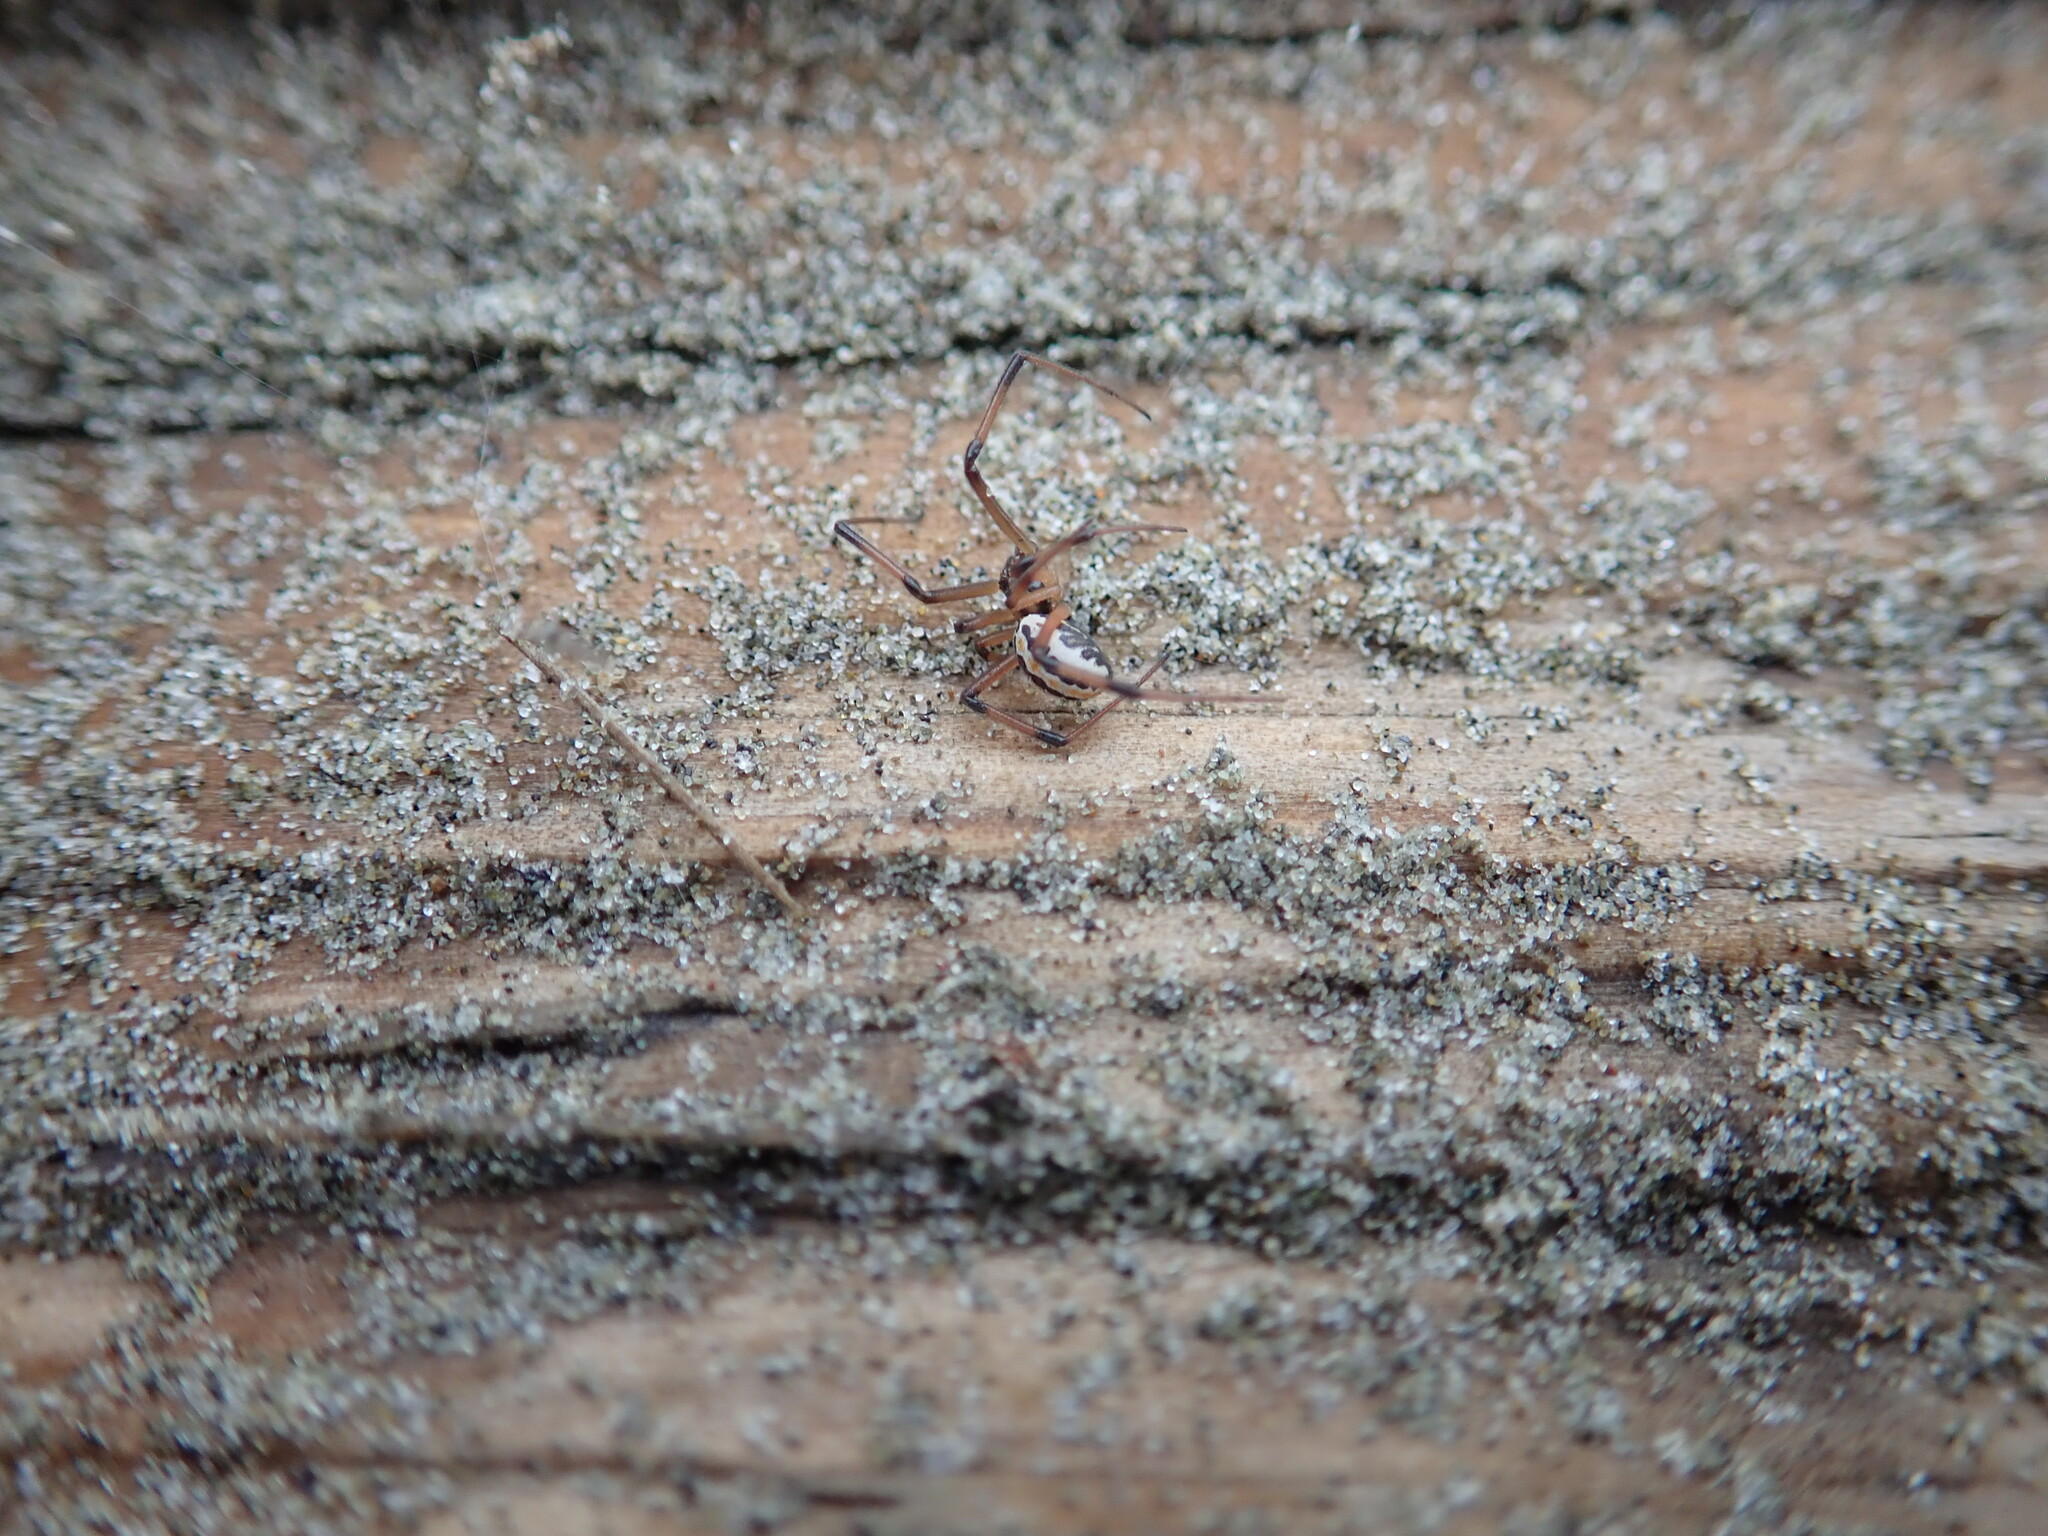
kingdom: Animalia
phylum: Arthropoda
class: Arachnida
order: Araneae
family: Theridiidae
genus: Latrodectus
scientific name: Latrodectus katipo
